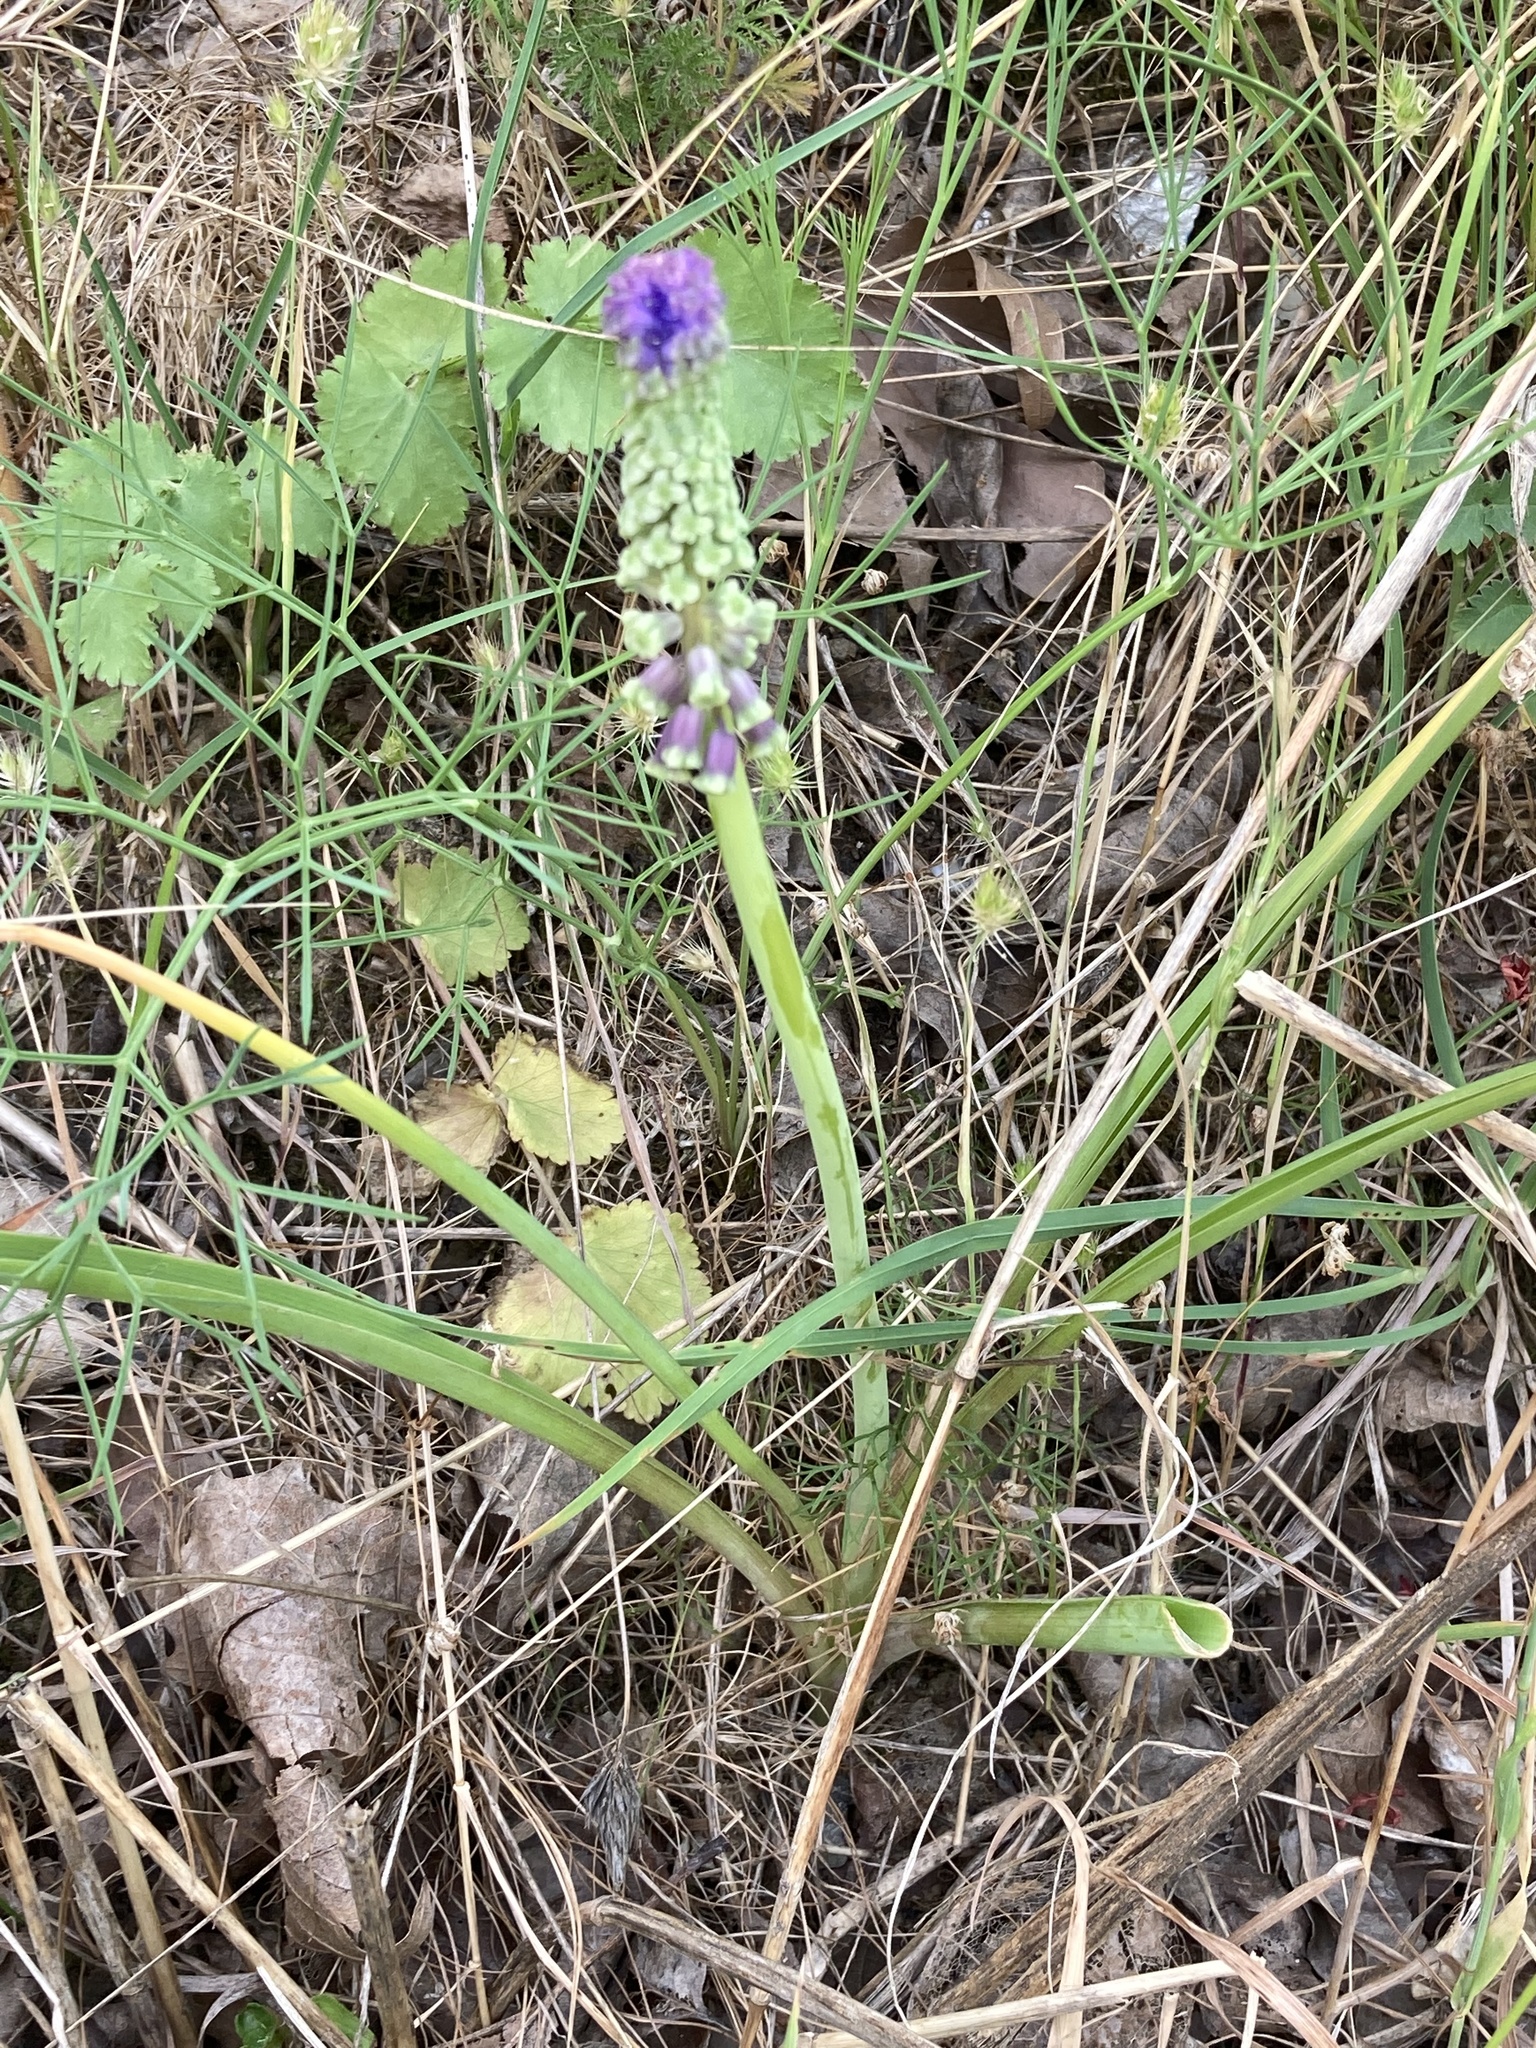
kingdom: Plantae
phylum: Tracheophyta
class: Liliopsida
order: Asparagales
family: Asparagaceae
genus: Muscari
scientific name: Muscari tenuiflorum
